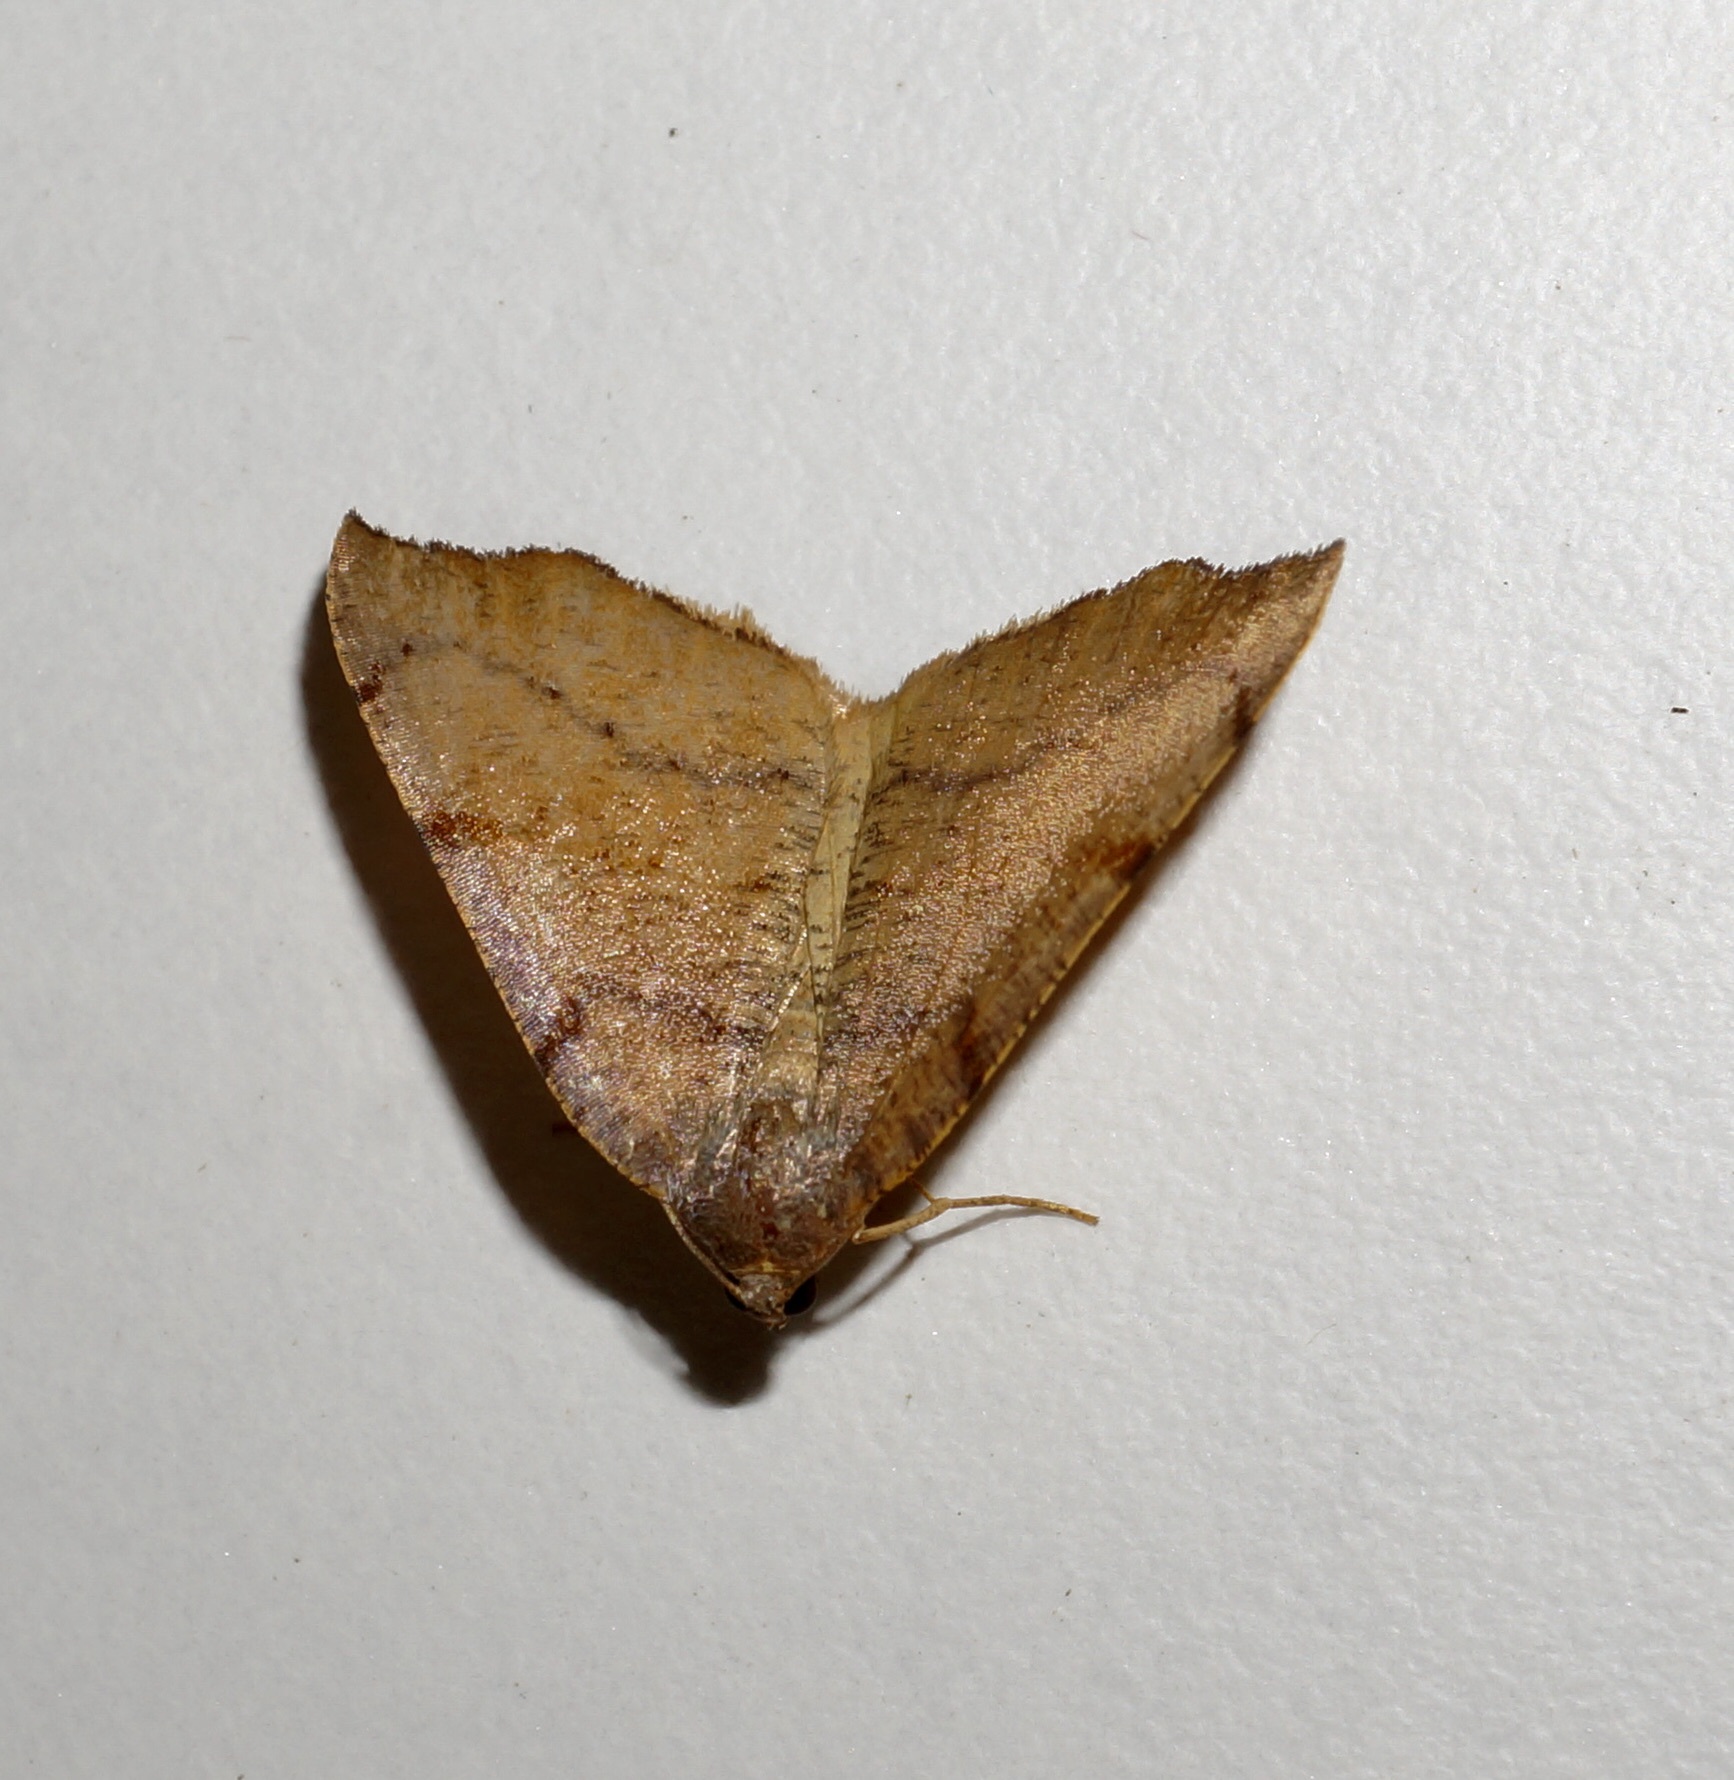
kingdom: Animalia
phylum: Arthropoda
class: Insecta
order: Lepidoptera
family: Geometridae
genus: Sestra
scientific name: Sestra flexata
